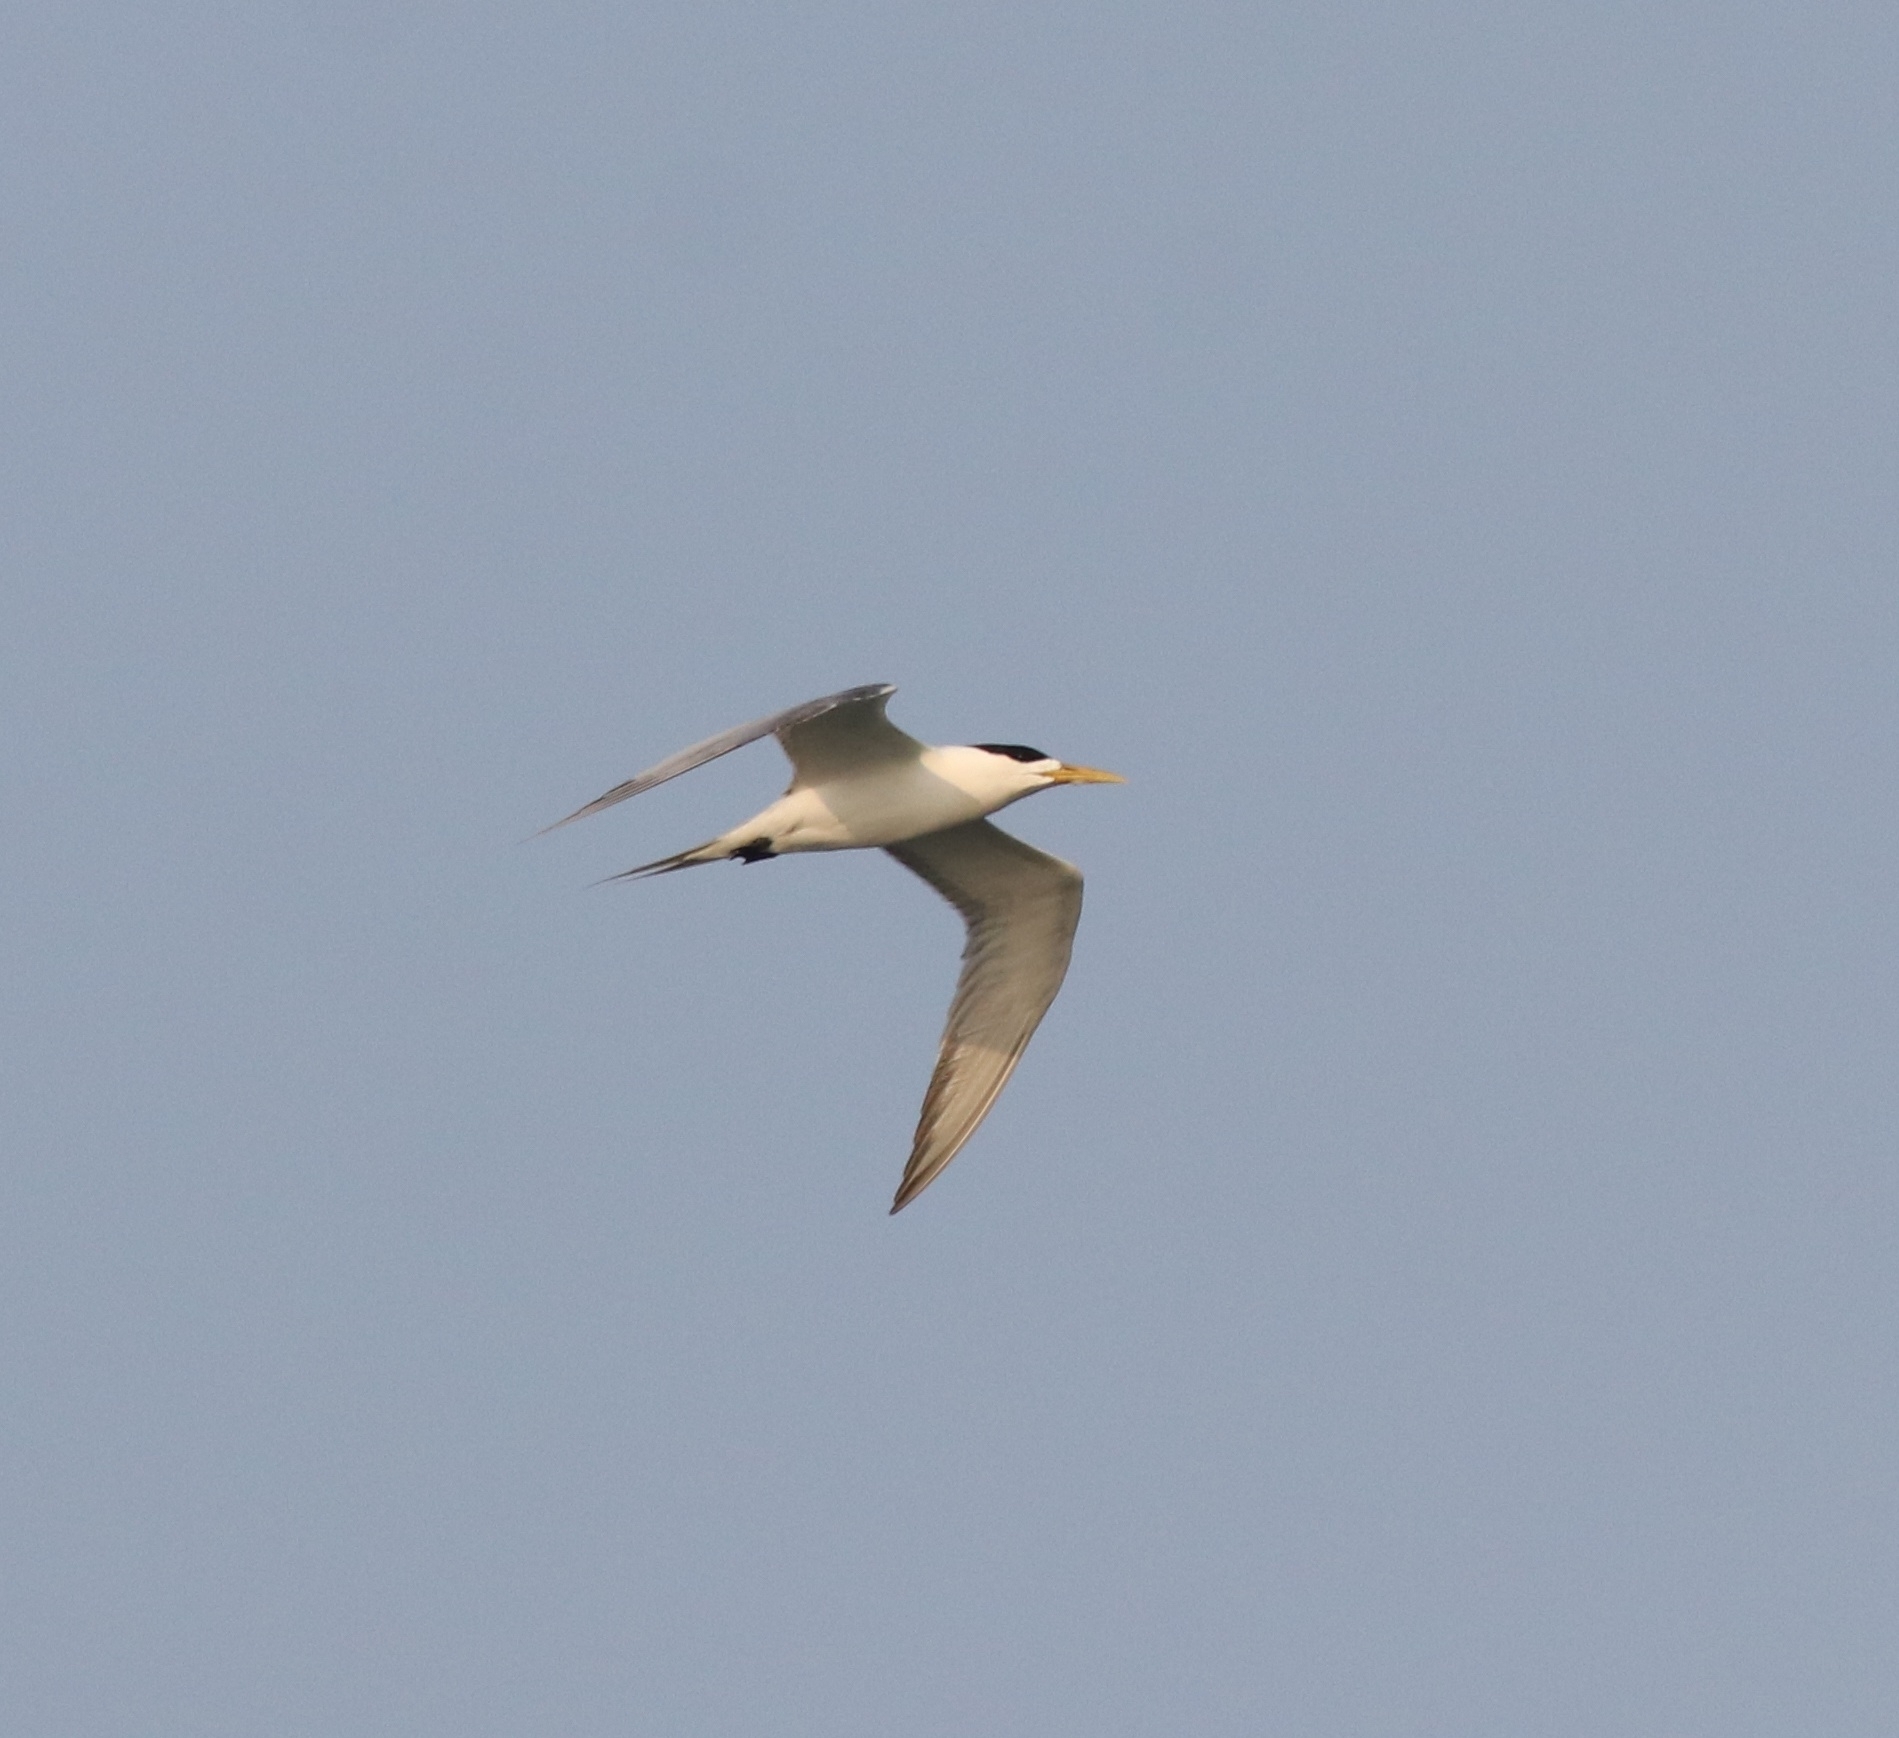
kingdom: Animalia
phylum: Chordata
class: Aves
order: Charadriiformes
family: Laridae
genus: Thalasseus
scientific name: Thalasseus bergii
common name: Greater crested tern
